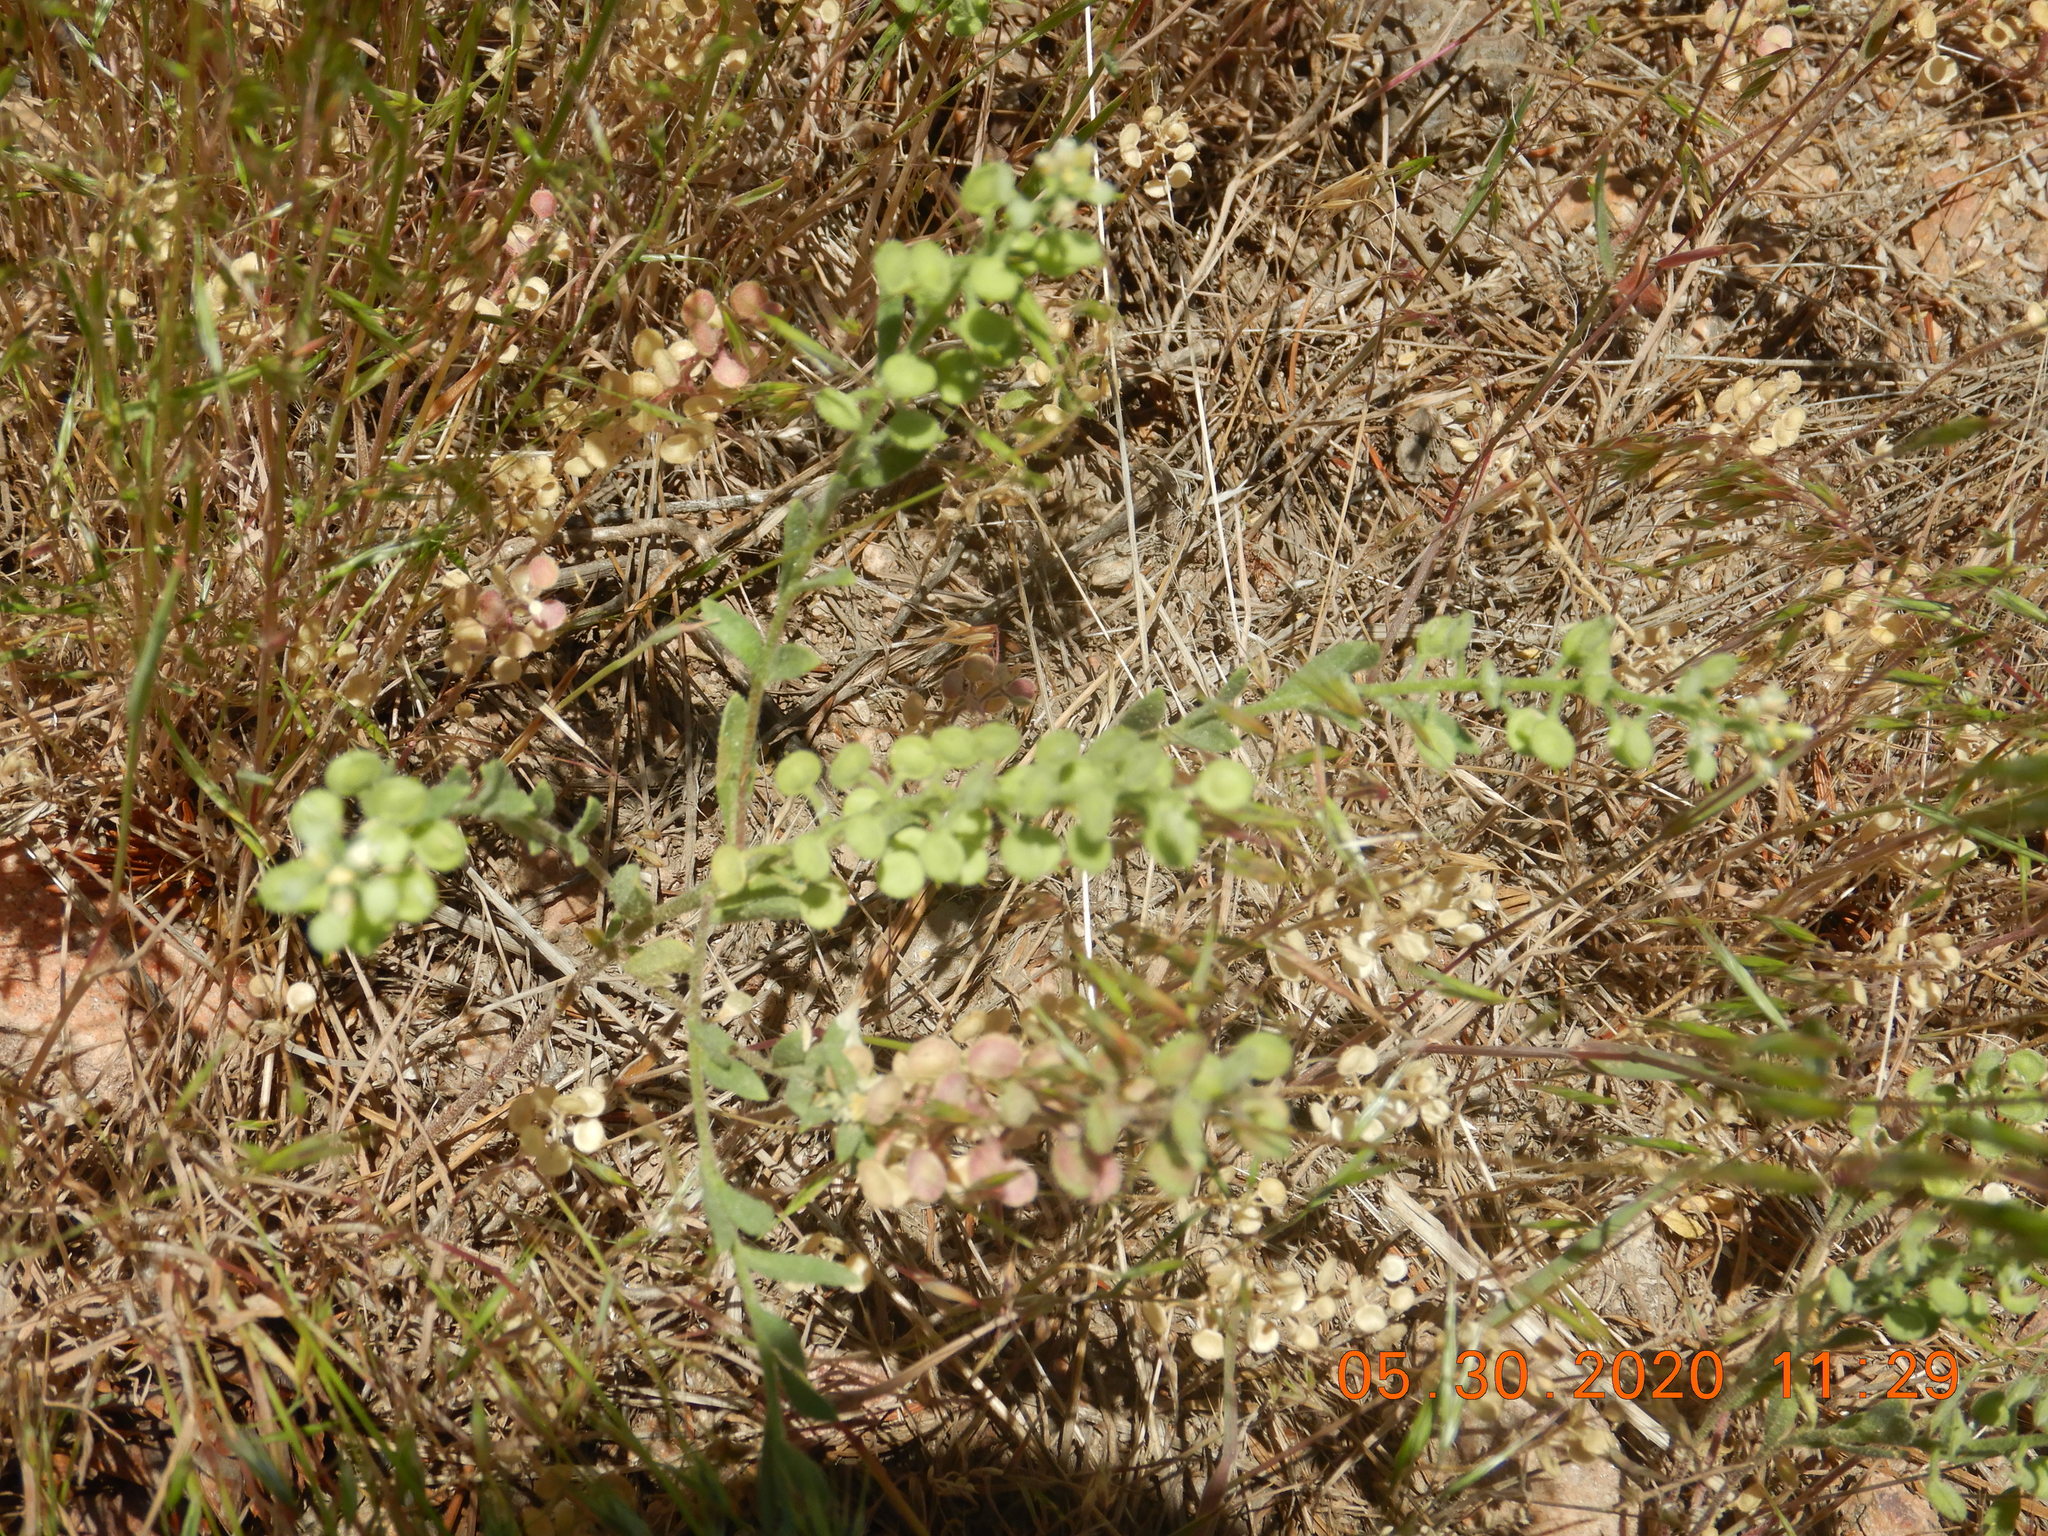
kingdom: Plantae
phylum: Tracheophyta
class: Magnoliopsida
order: Brassicales
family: Brassicaceae
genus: Alyssum
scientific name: Alyssum simplex
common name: Alyssum
